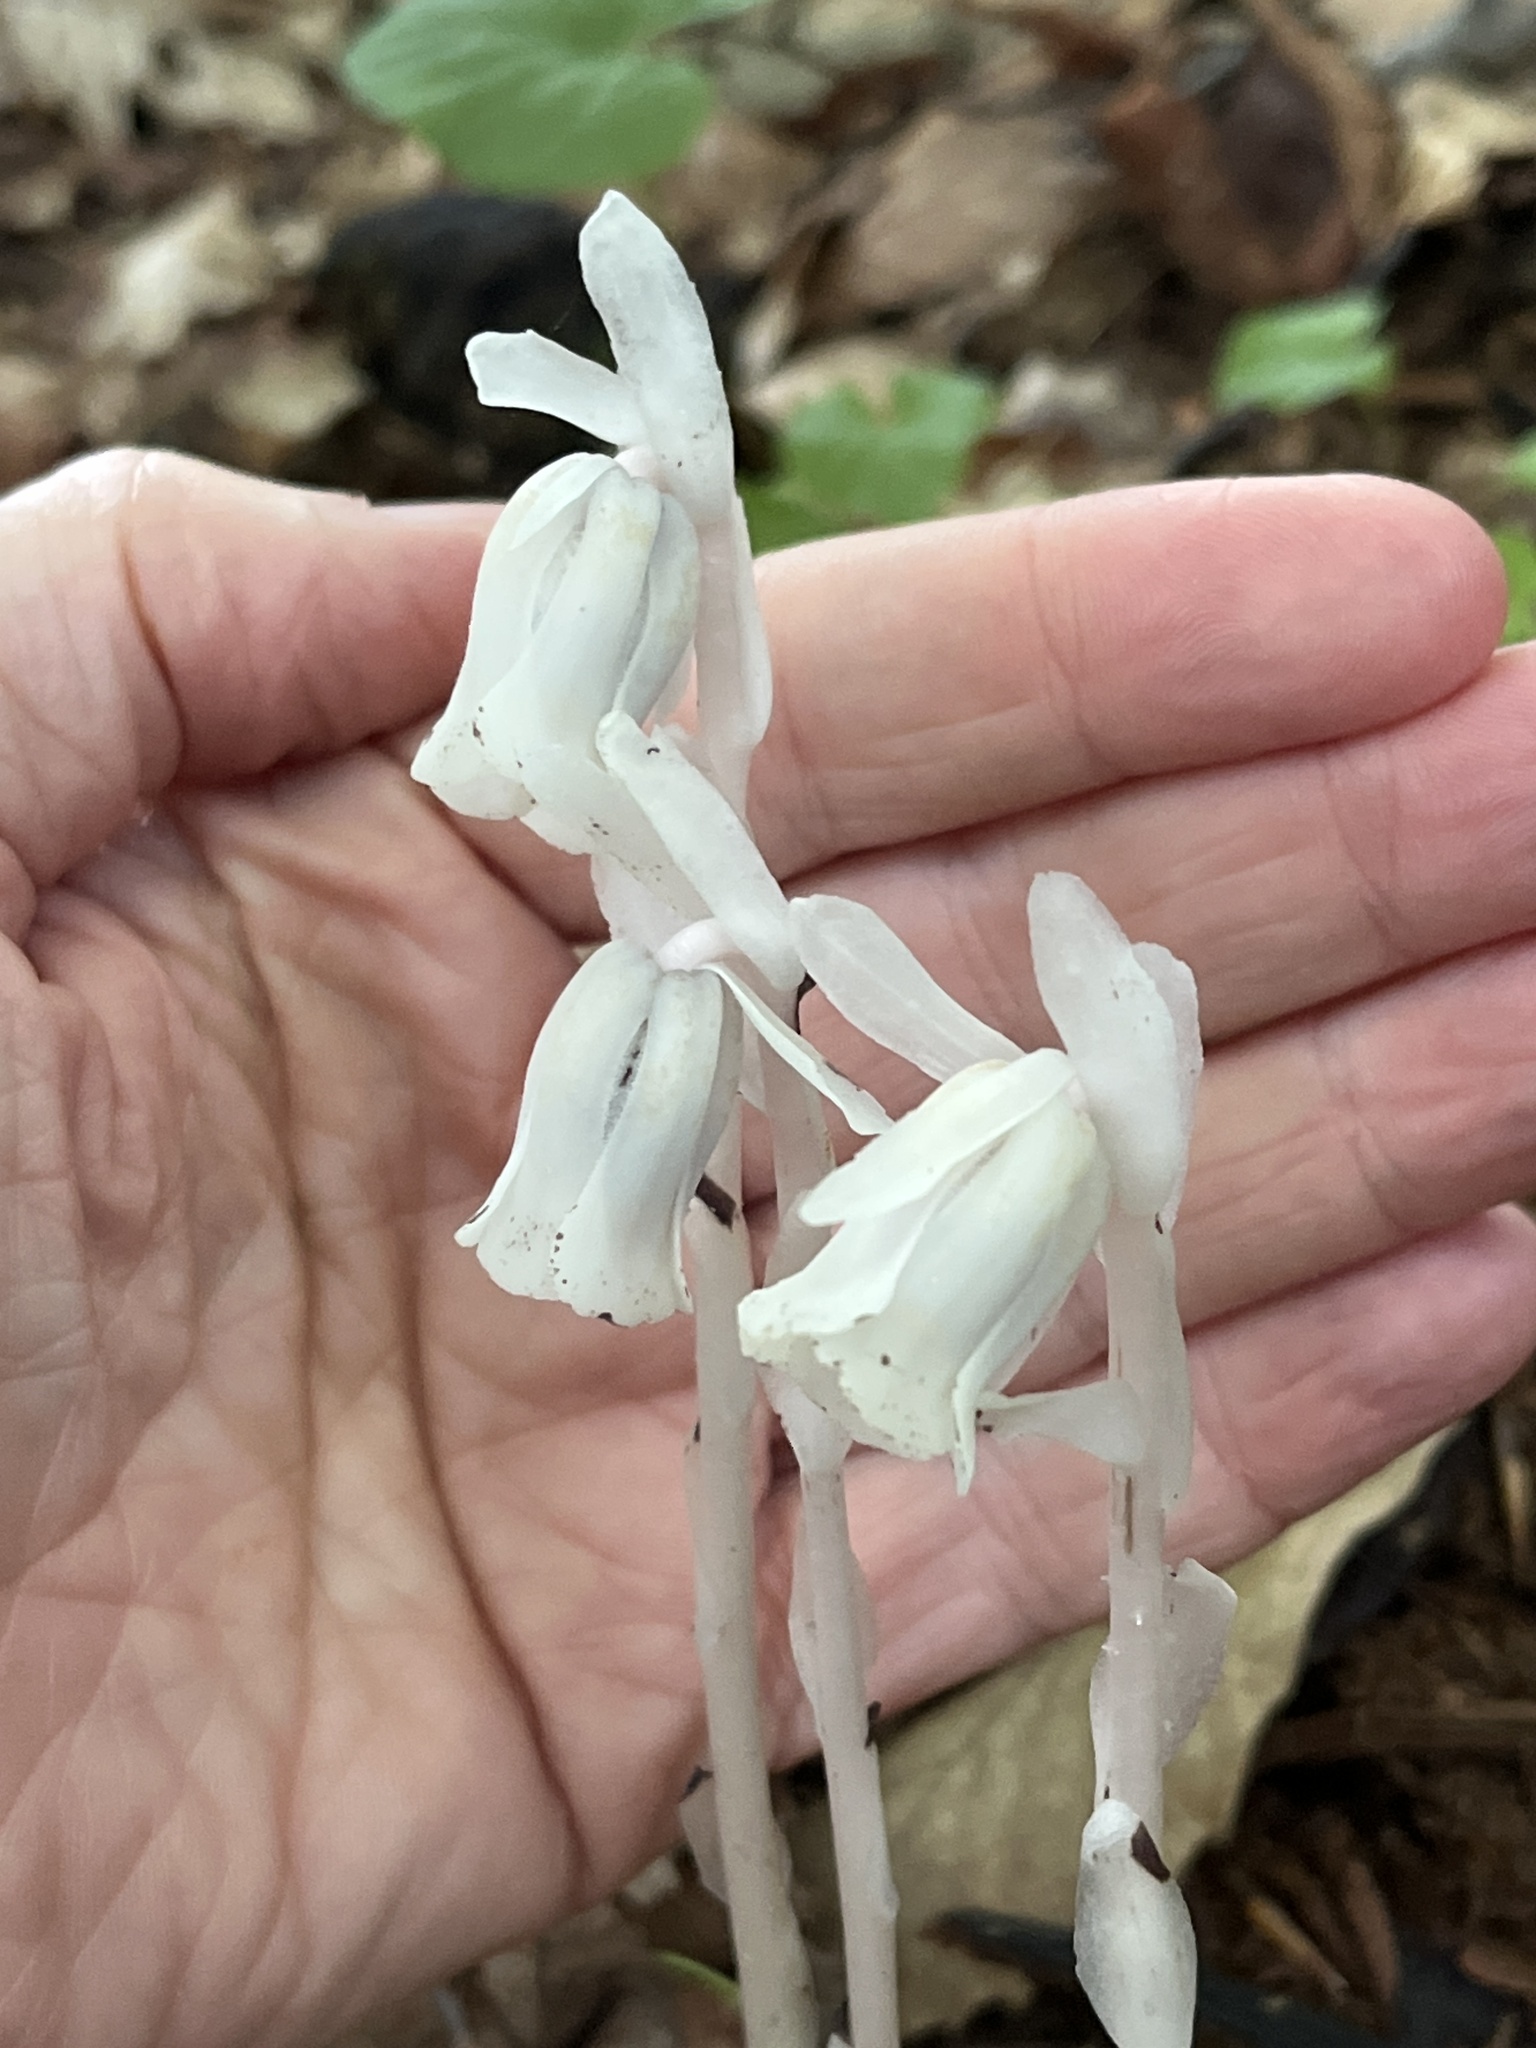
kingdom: Plantae
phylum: Tracheophyta
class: Magnoliopsida
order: Ericales
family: Ericaceae
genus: Monotropa
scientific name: Monotropa uniflora
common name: Convulsion root
